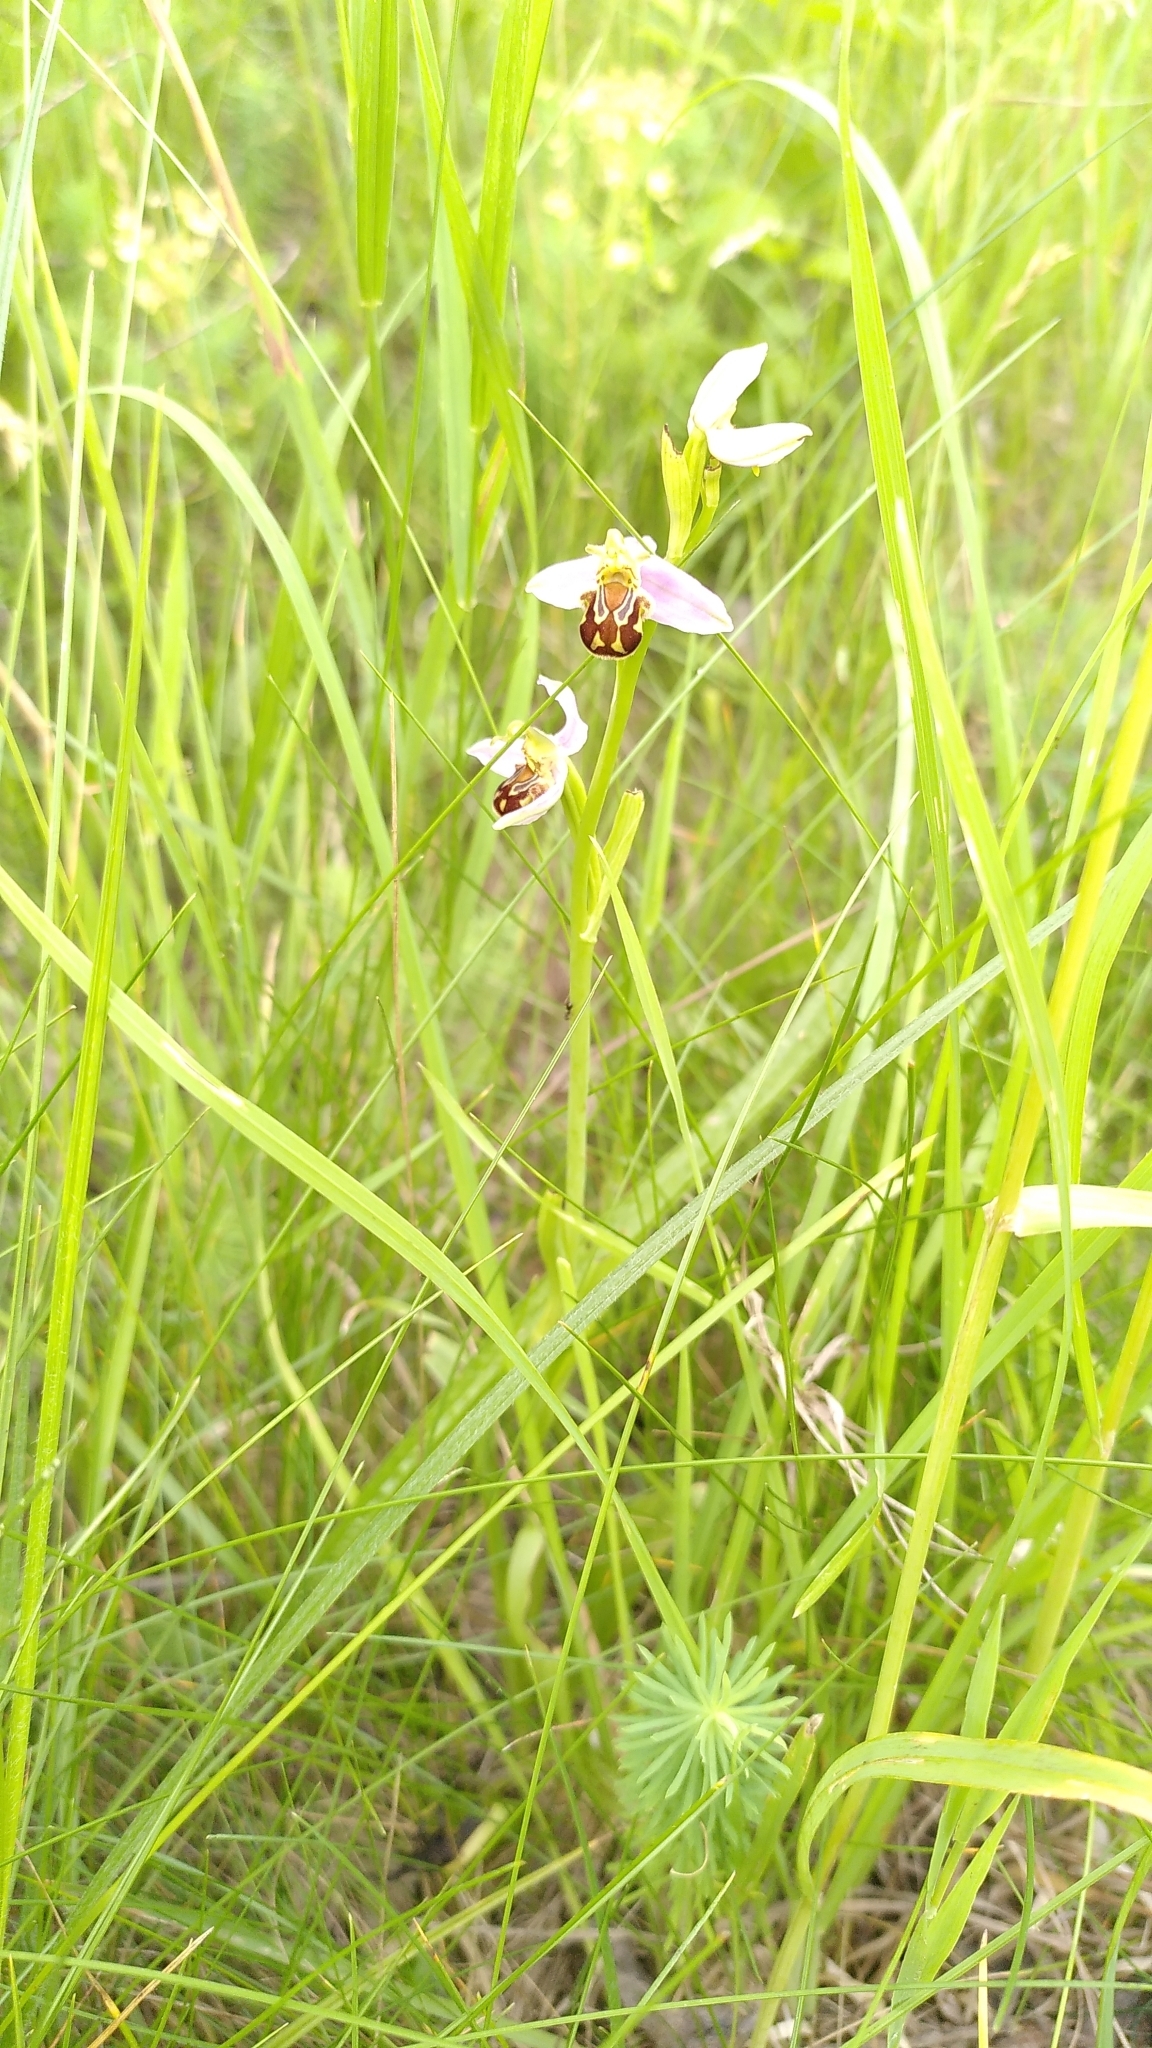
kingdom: Plantae
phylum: Tracheophyta
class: Liliopsida
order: Asparagales
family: Orchidaceae
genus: Ophrys
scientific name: Ophrys apifera
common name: Bee orchid
